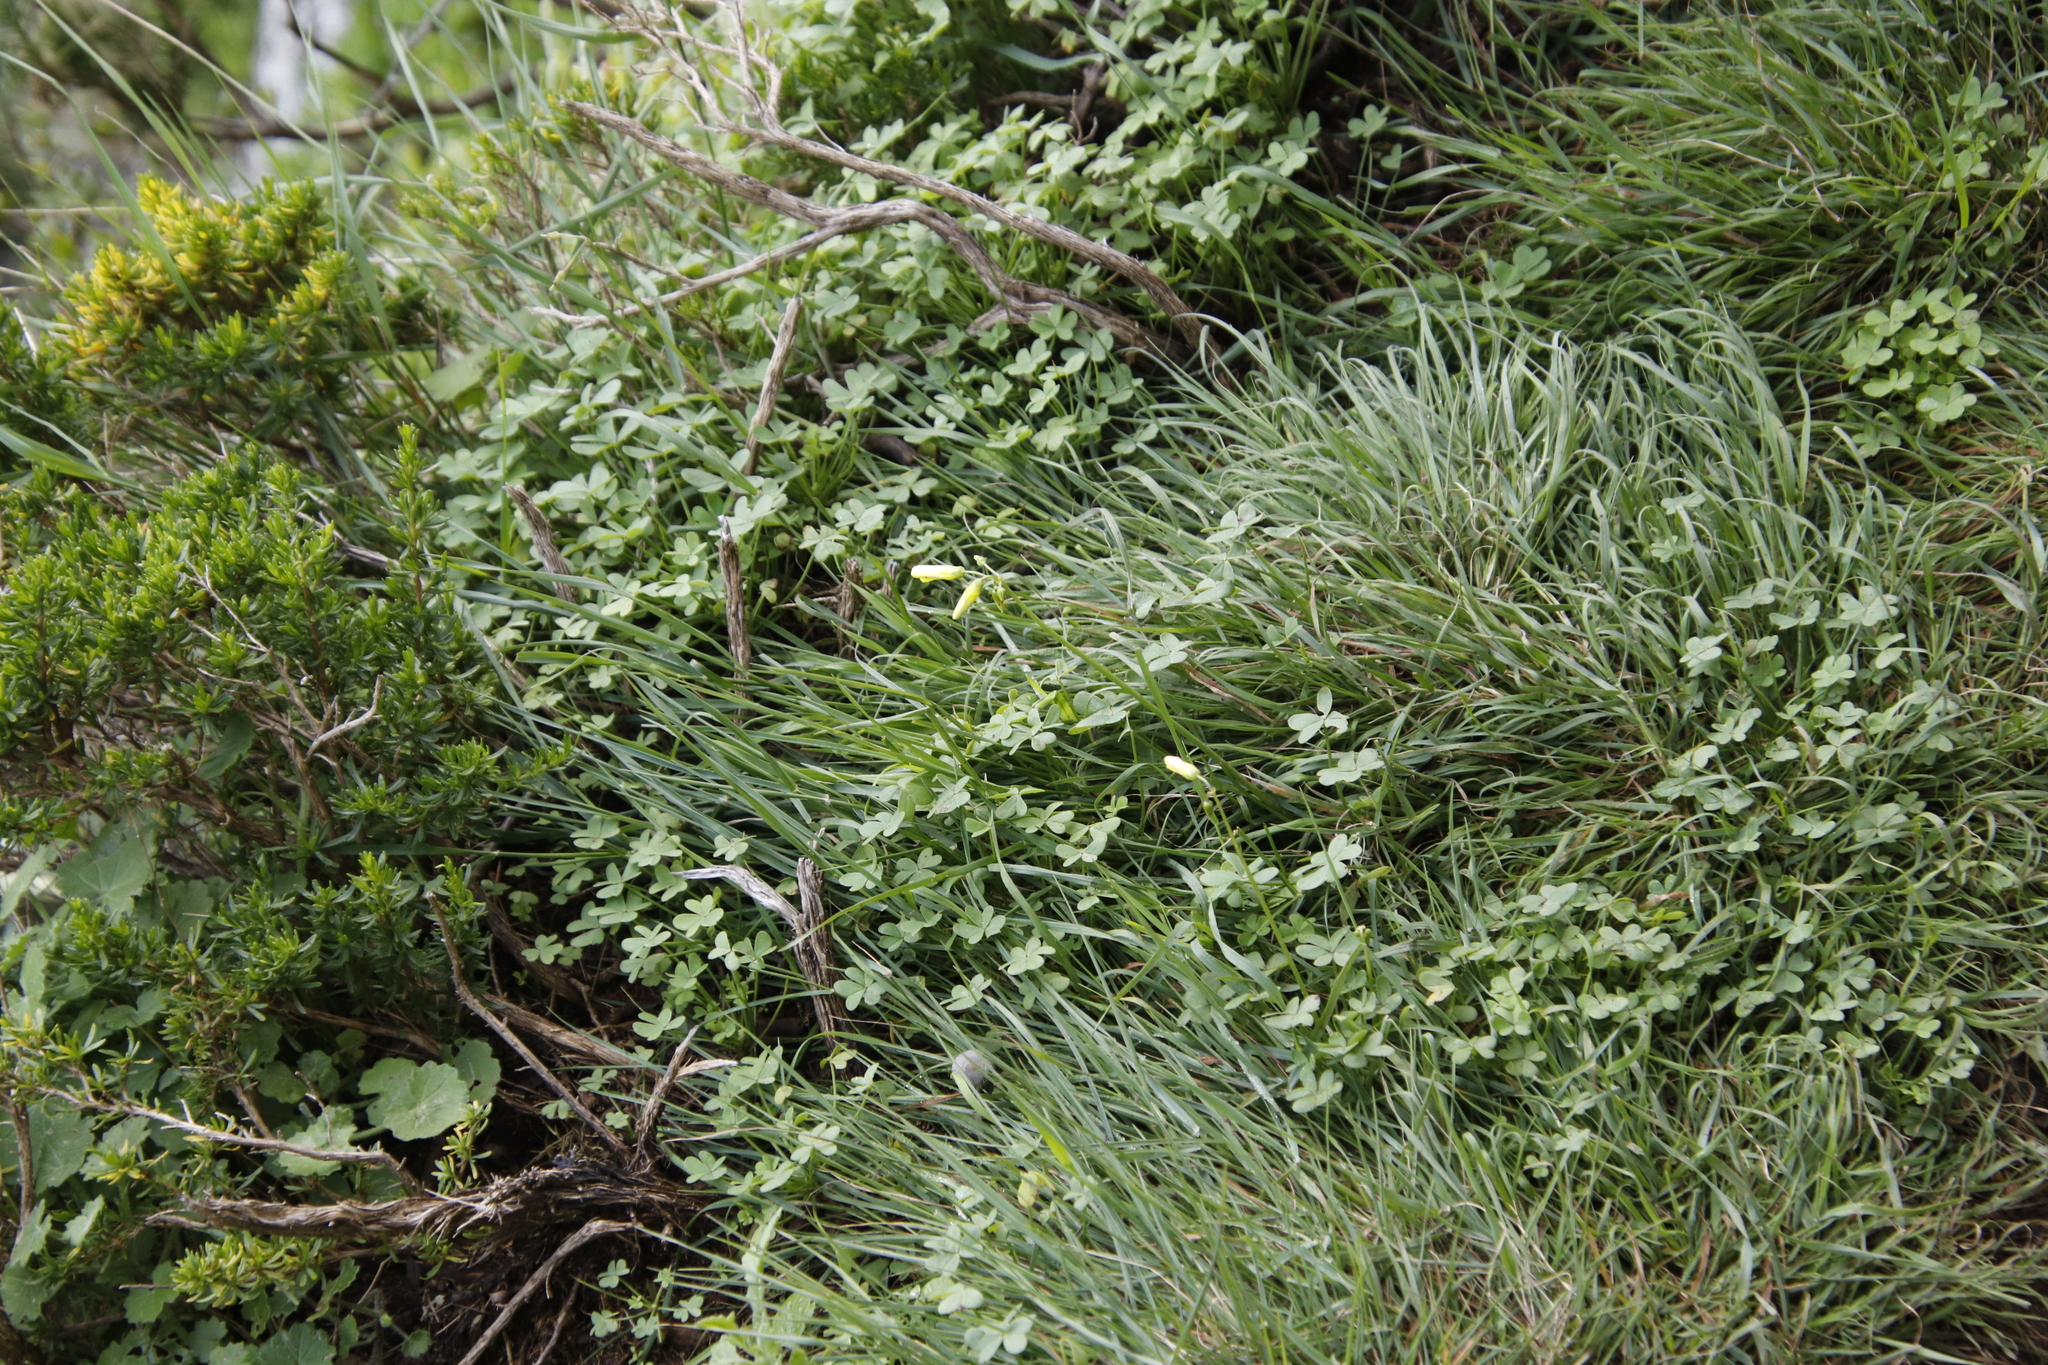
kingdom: Plantae
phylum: Tracheophyta
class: Magnoliopsida
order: Oxalidales
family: Oxalidaceae
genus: Oxalis
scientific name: Oxalis pes-caprae
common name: Bermuda-buttercup
